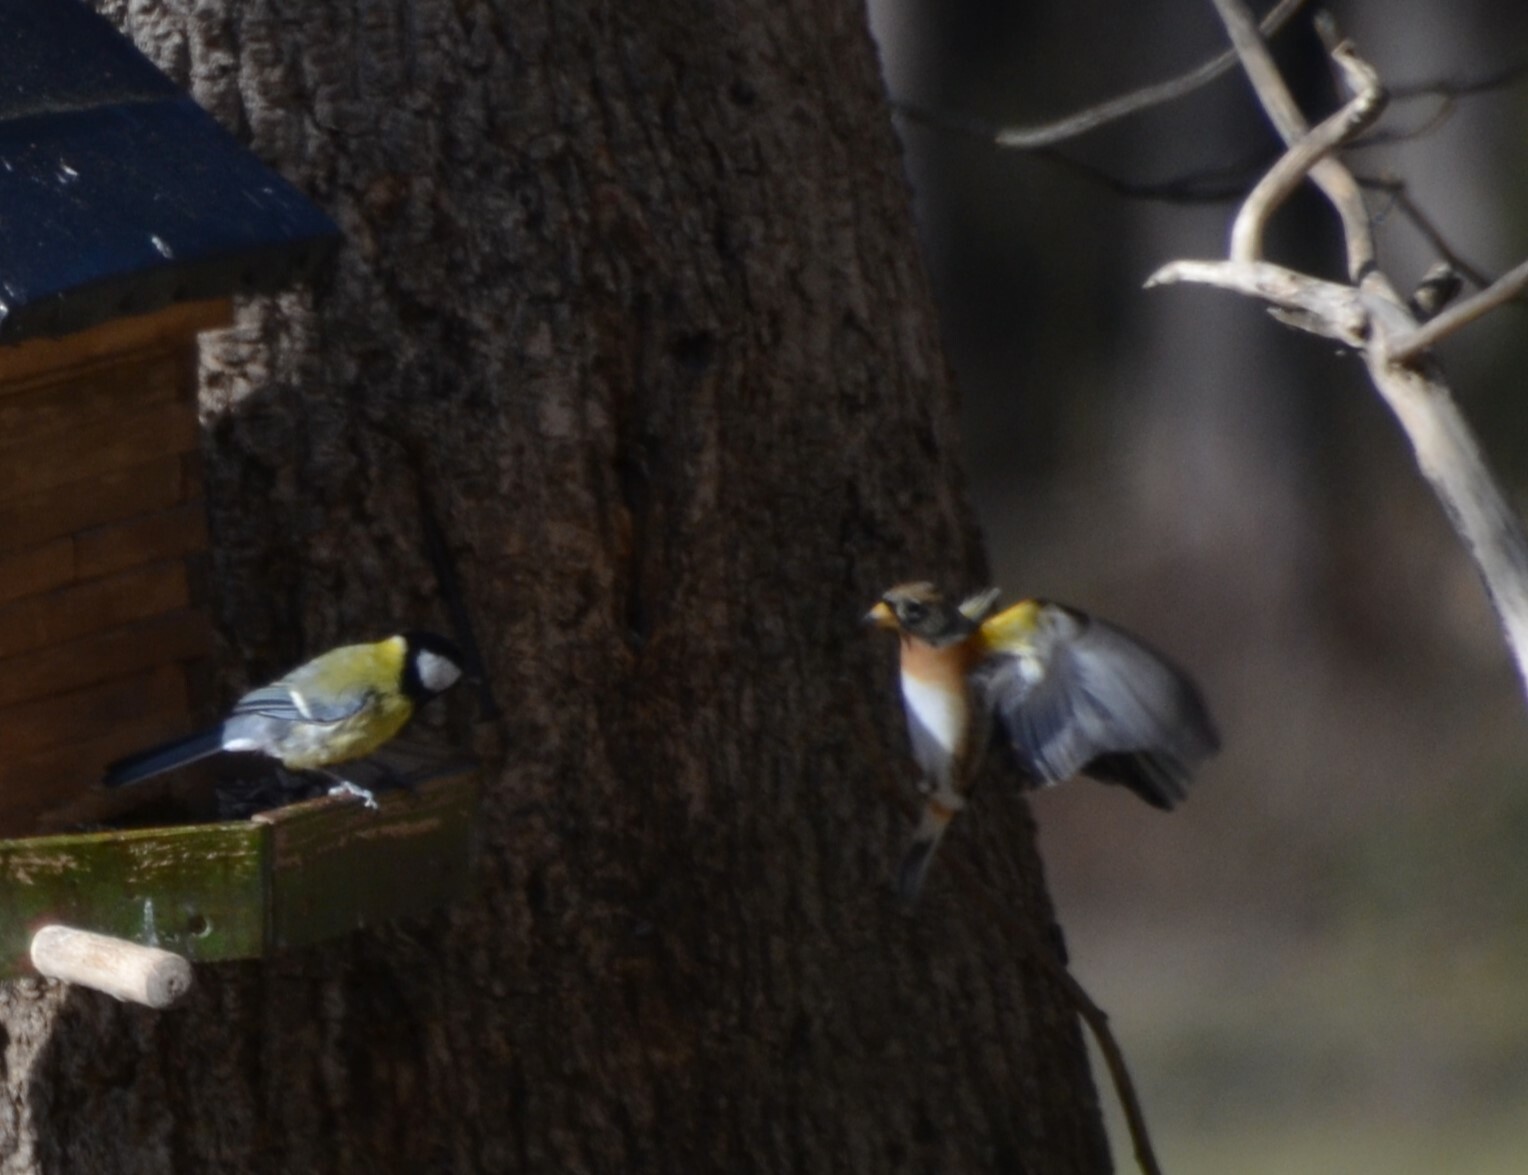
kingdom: Animalia
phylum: Chordata
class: Aves
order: Passeriformes
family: Fringillidae
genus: Fringilla
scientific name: Fringilla montifringilla
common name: Brambling
